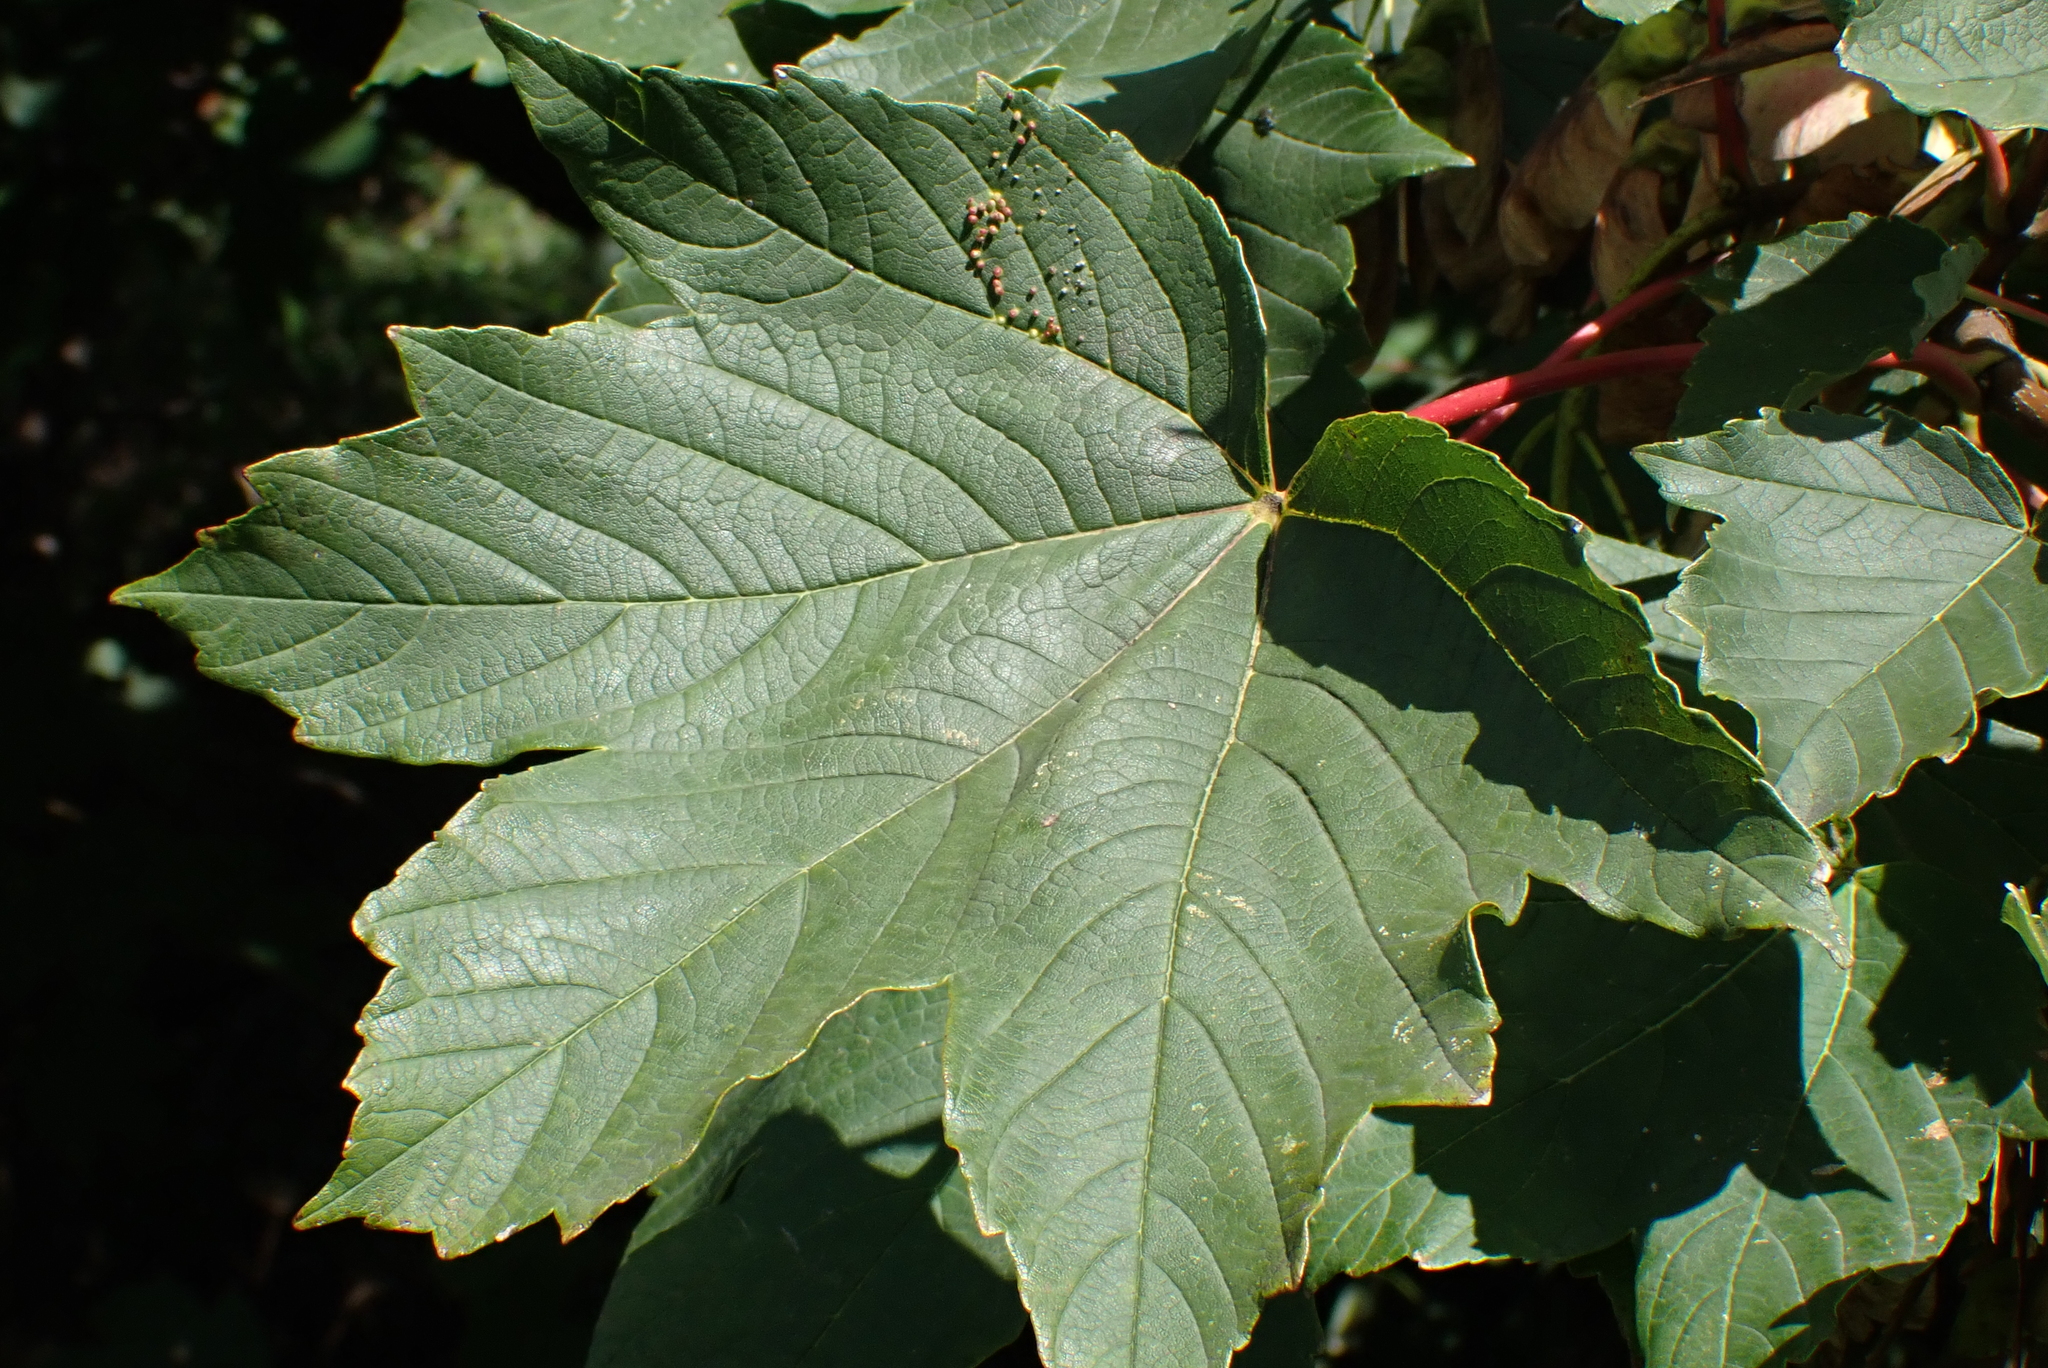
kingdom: Plantae
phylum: Tracheophyta
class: Magnoliopsida
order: Sapindales
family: Sapindaceae
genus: Acer
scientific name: Acer pseudoplatanus
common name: Sycamore
